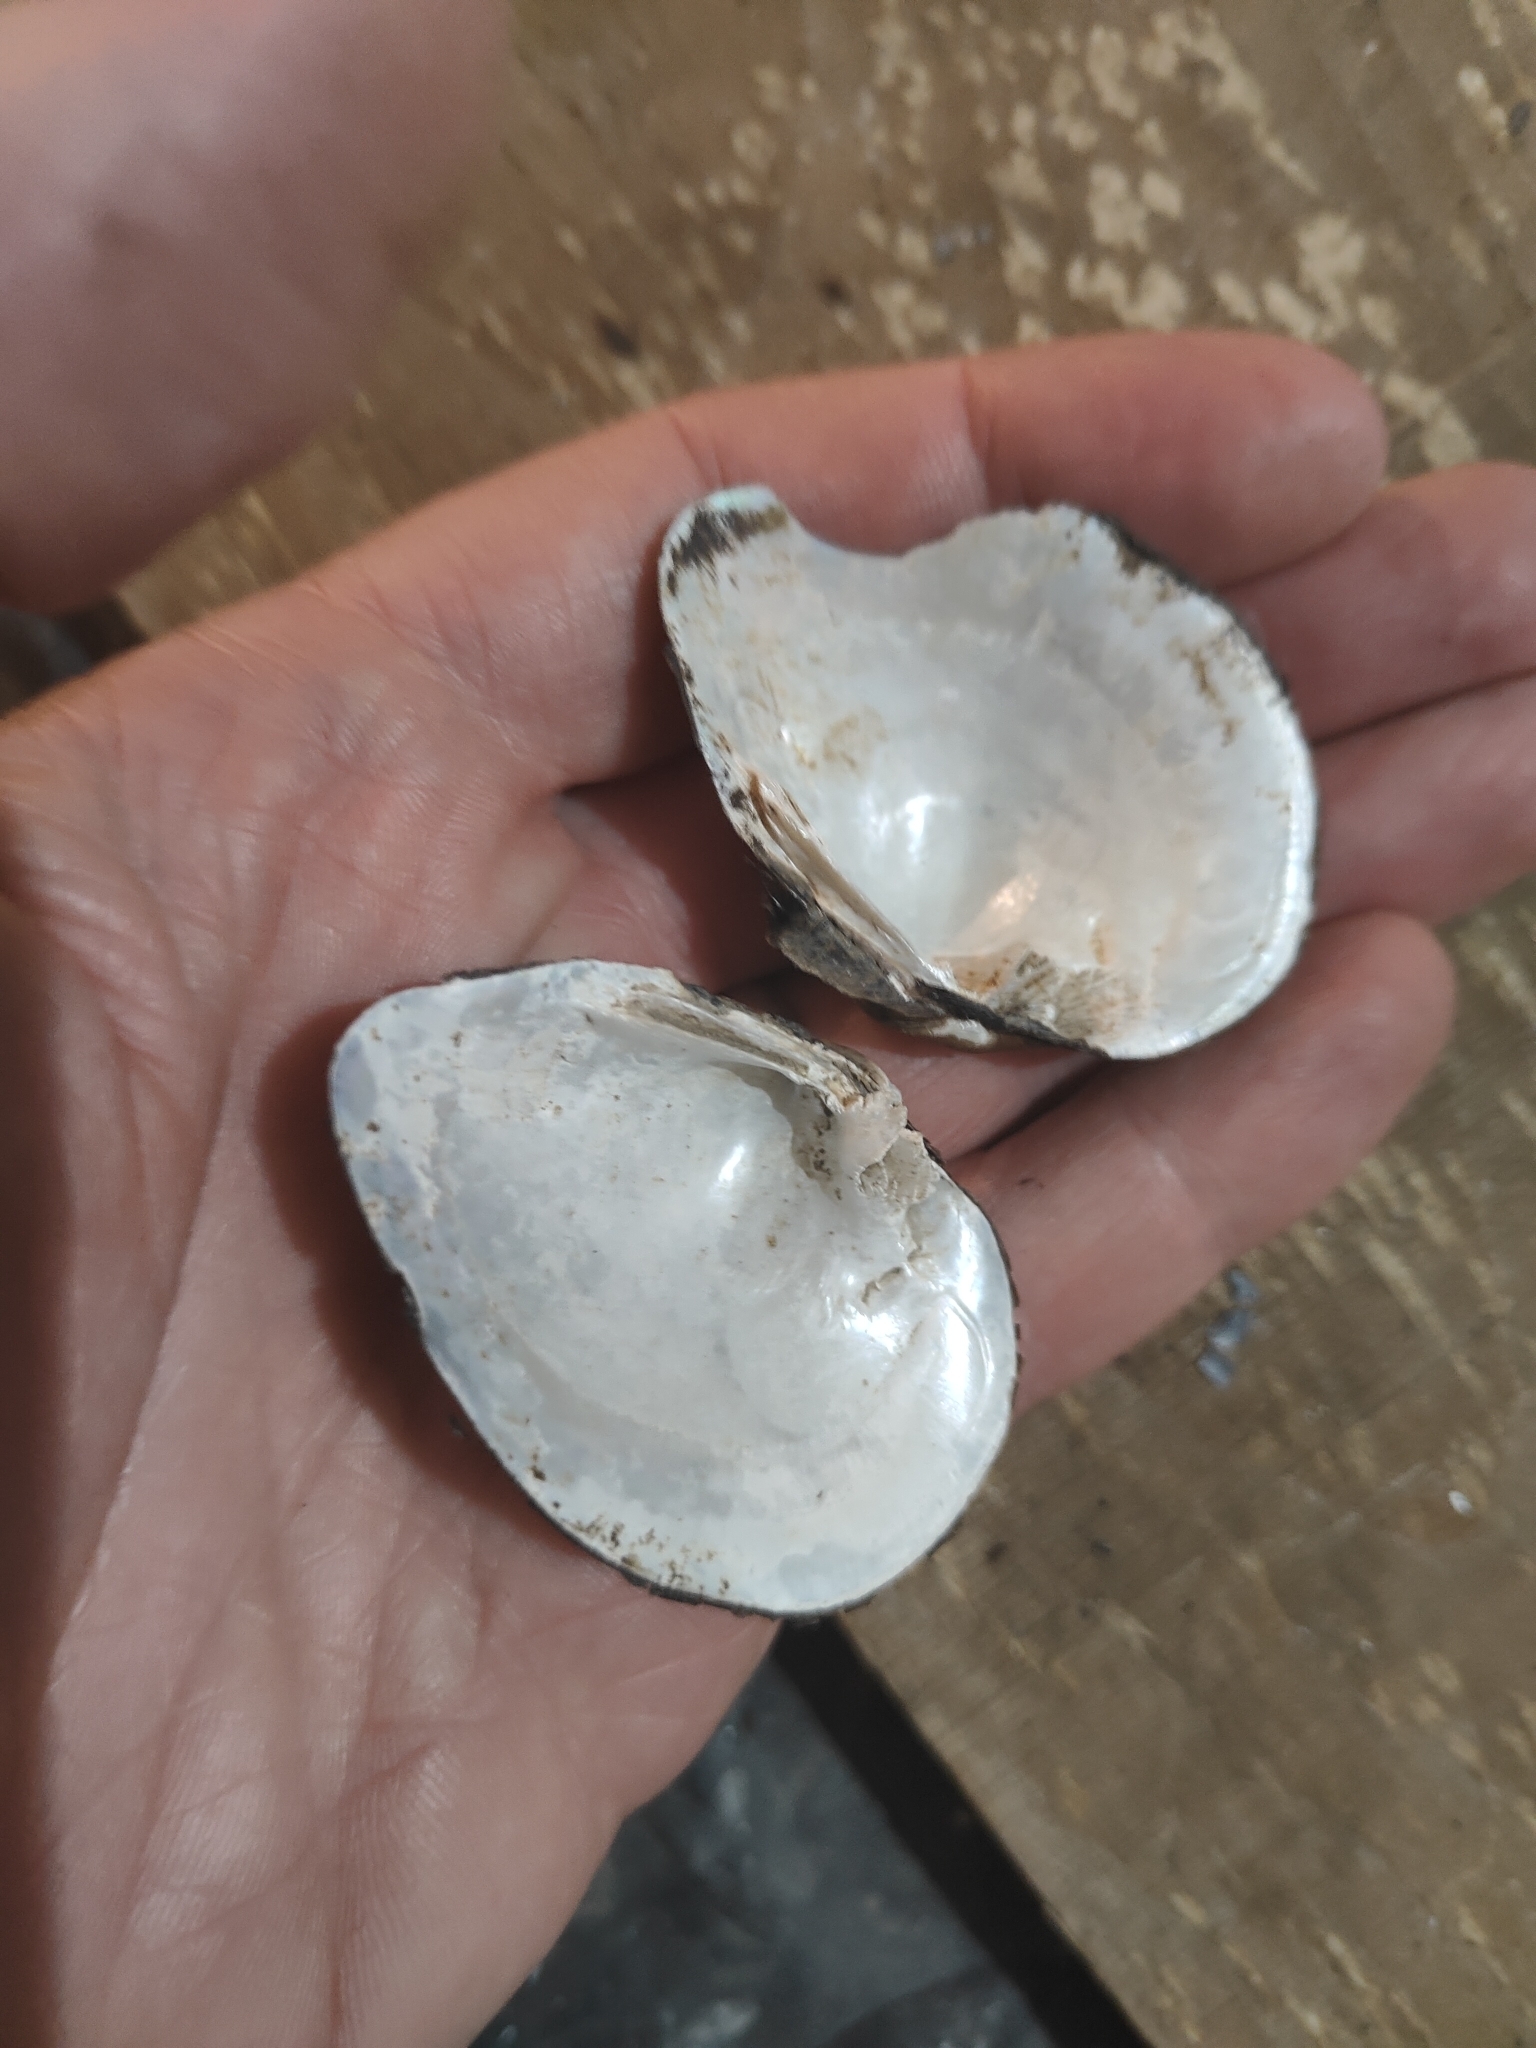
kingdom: Animalia
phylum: Mollusca
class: Bivalvia
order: Unionida
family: Unionidae
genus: Truncilla
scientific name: Truncilla truncata
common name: Deertoe
